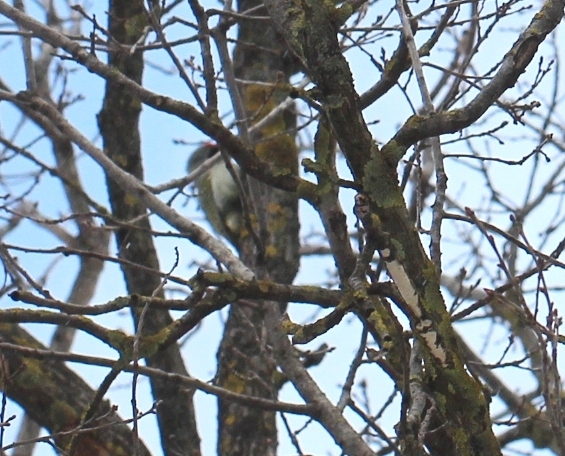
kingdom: Animalia
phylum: Chordata
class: Aves
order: Piciformes
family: Picidae
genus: Picus
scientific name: Picus canus
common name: Grey-headed woodpecker
